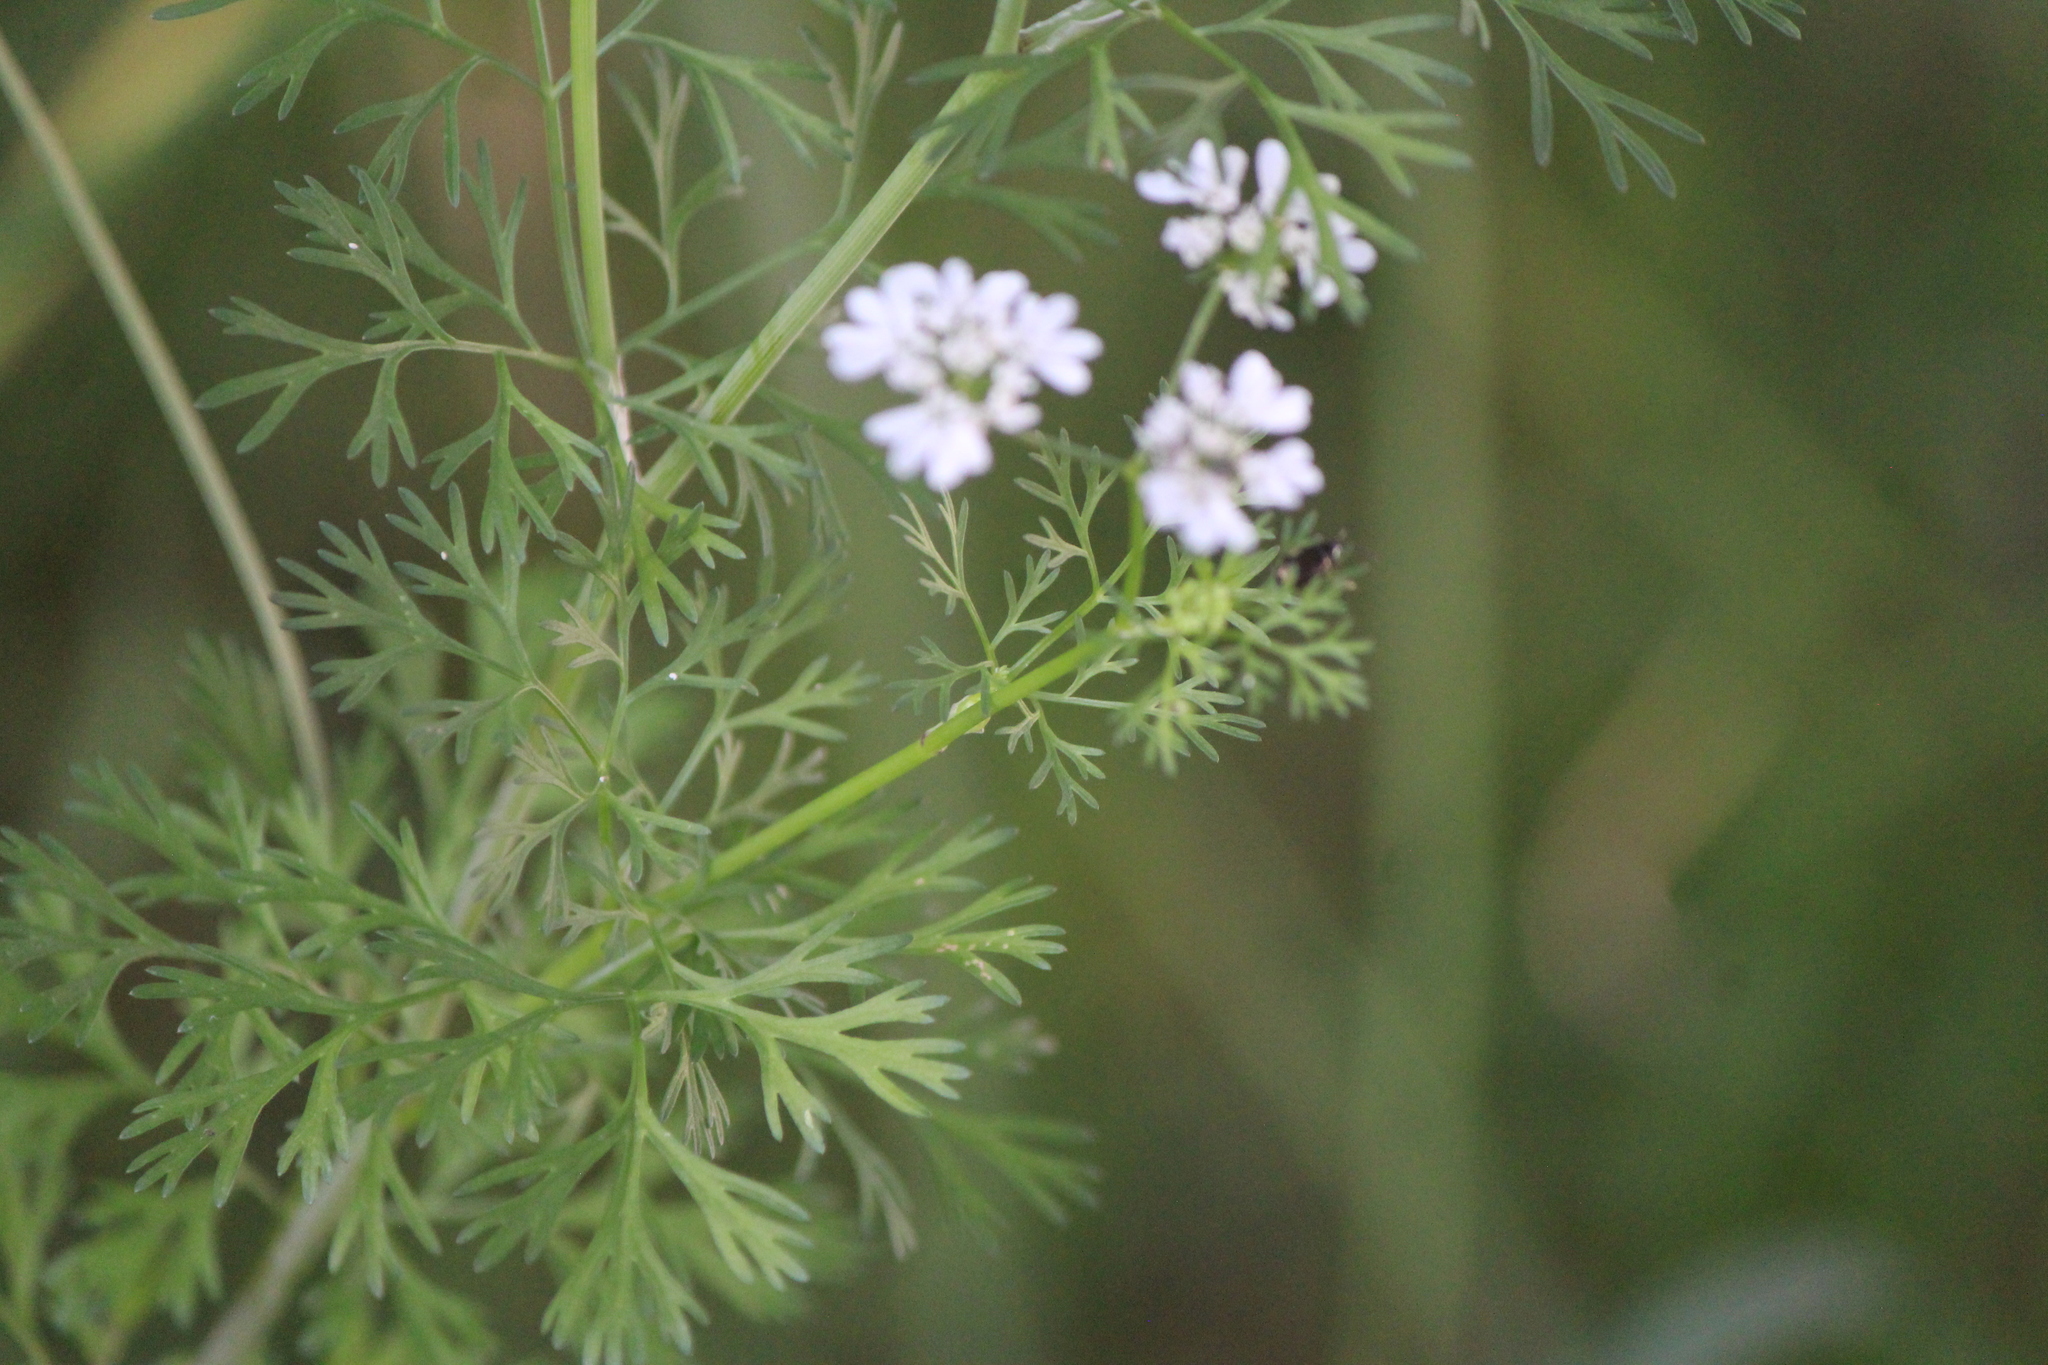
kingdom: Plantae
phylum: Tracheophyta
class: Magnoliopsida
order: Apiales
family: Apiaceae
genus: Coriandrum
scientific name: Coriandrum sativum
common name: Coriander
